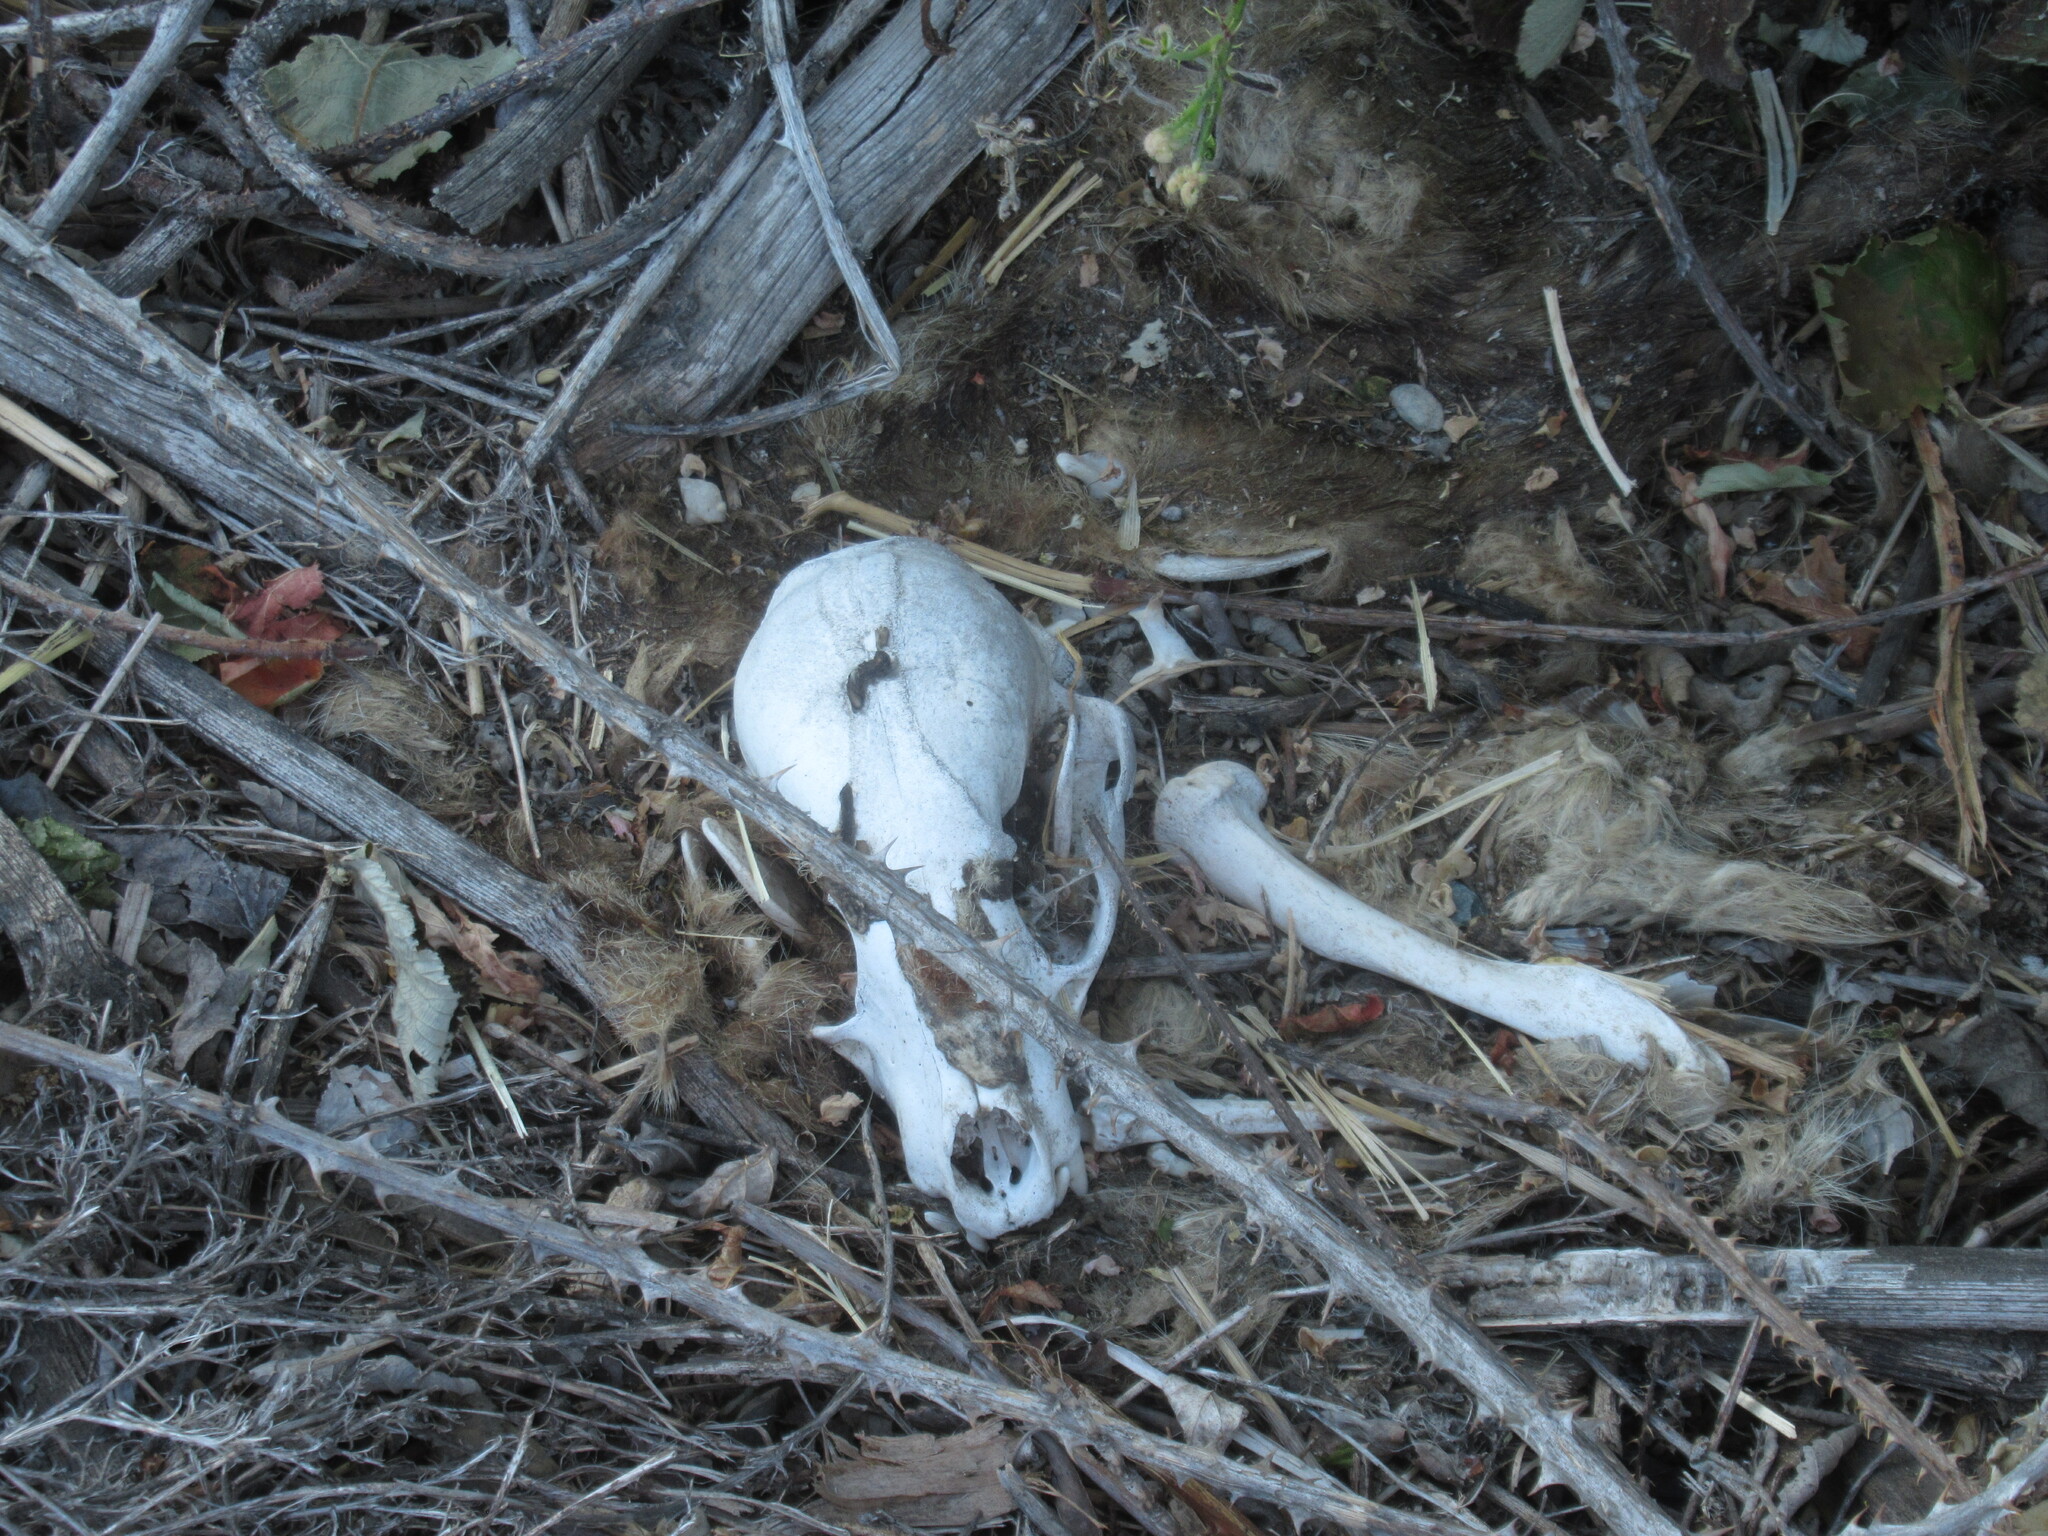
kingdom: Animalia
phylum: Chordata
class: Mammalia
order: Carnivora
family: Procyonidae
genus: Procyon
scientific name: Procyon lotor
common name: Raccoon
